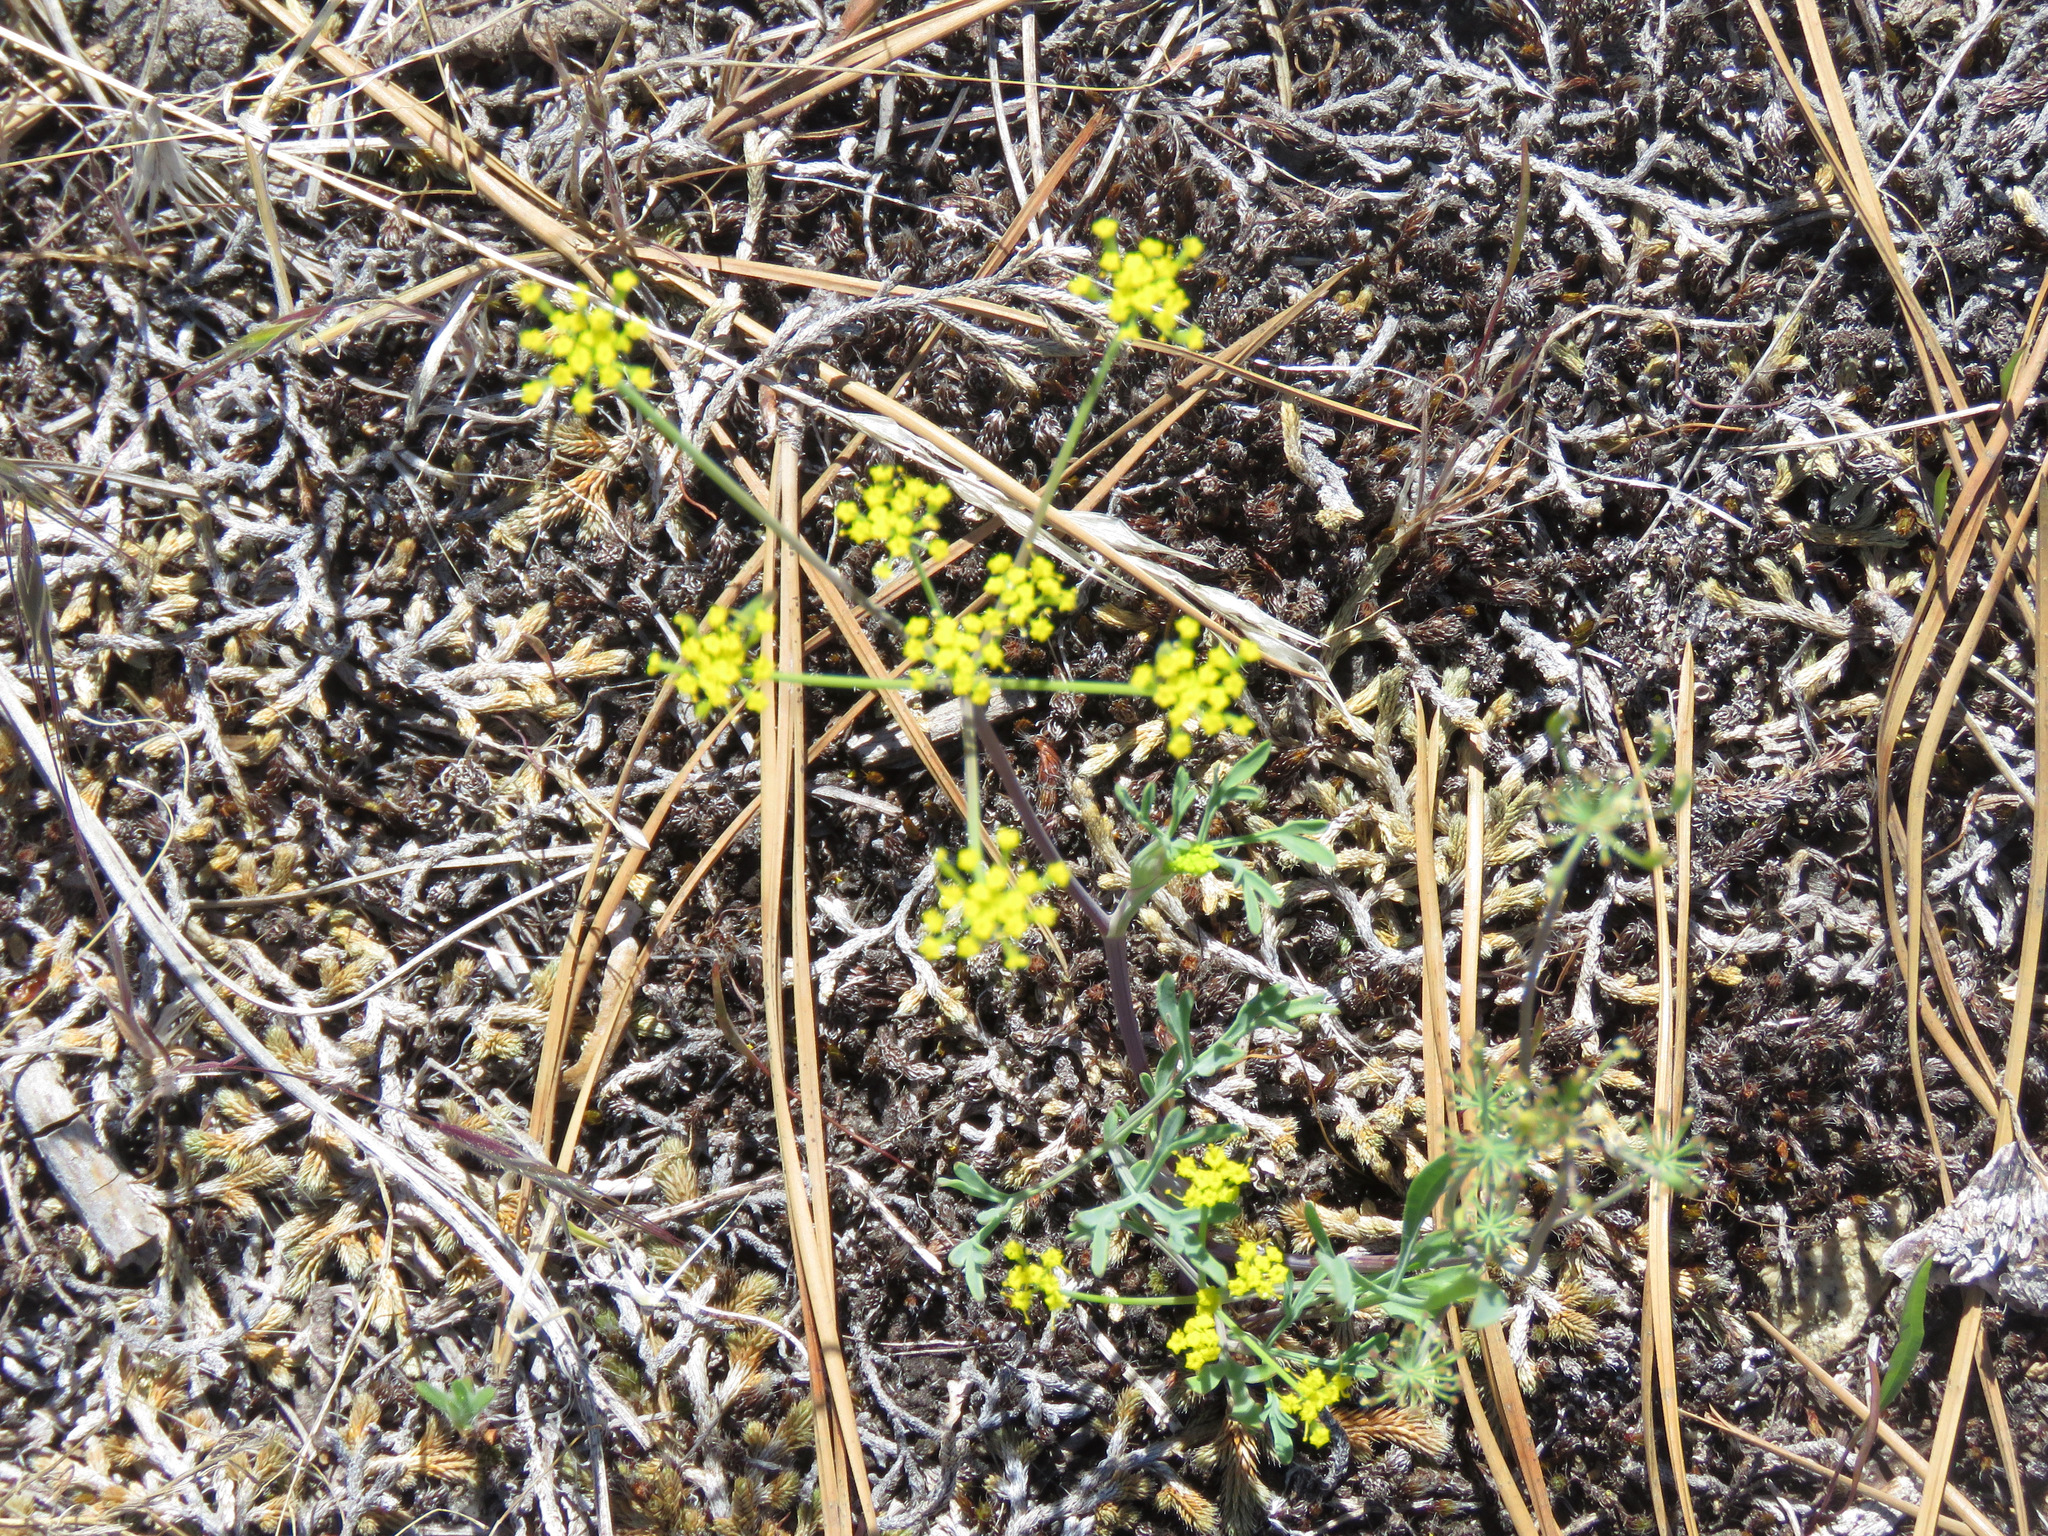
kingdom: Plantae
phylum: Tracheophyta
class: Magnoliopsida
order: Apiales
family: Apiaceae
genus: Lomatium
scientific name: Lomatium ambiguum
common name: Lacy lomatium
